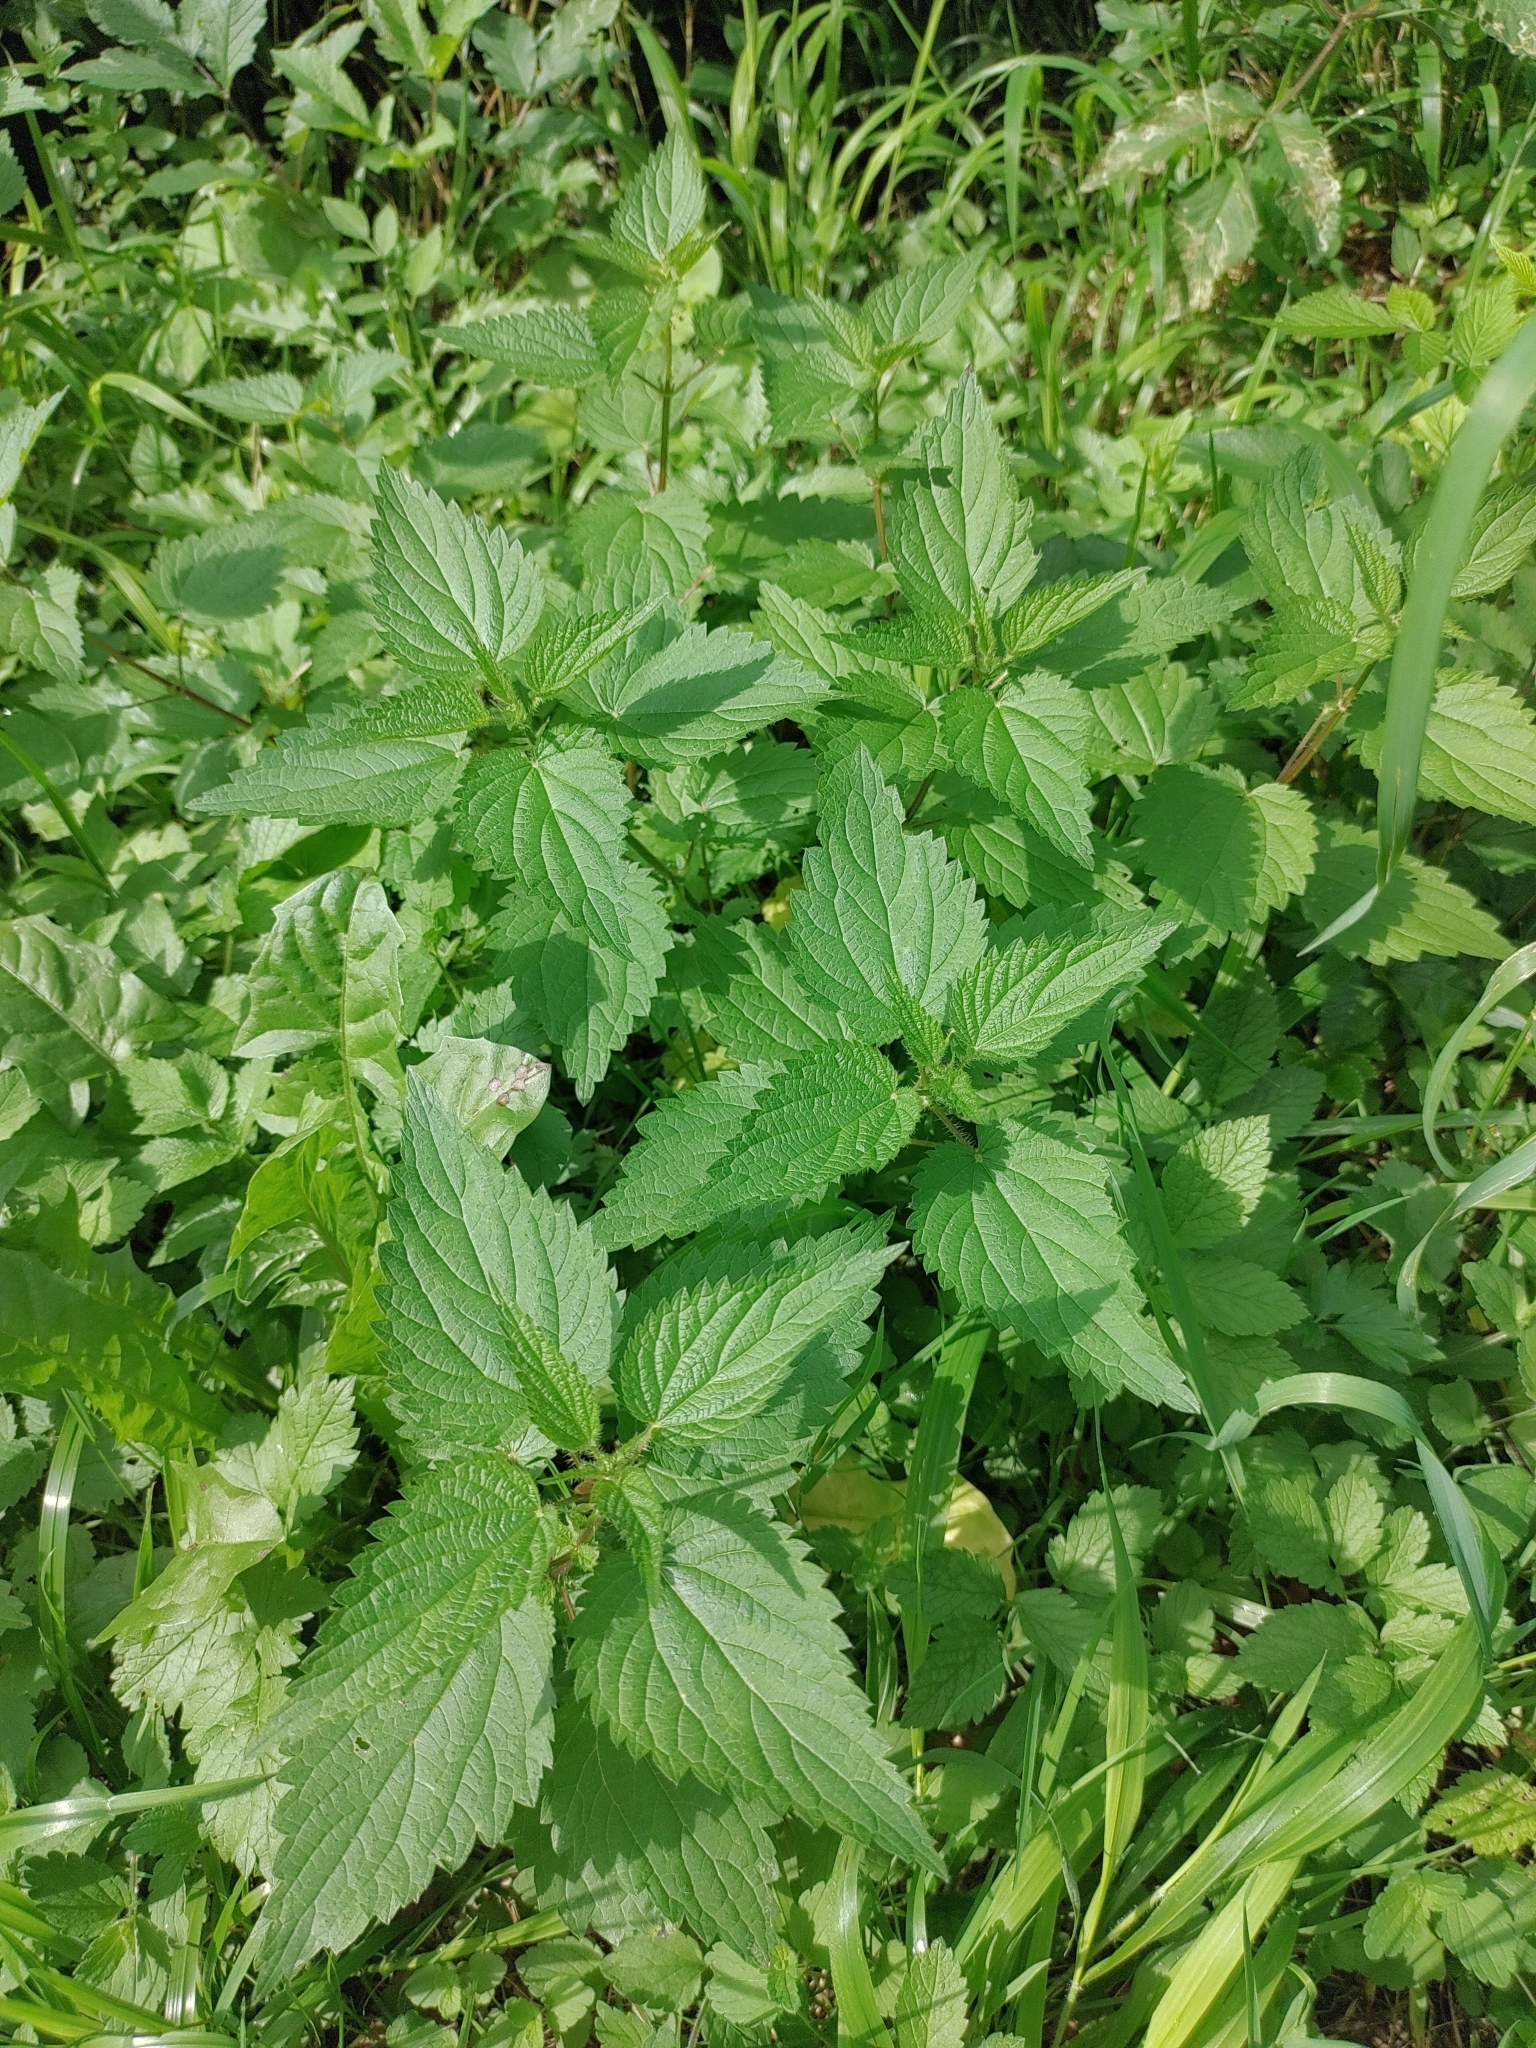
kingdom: Plantae
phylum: Tracheophyta
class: Magnoliopsida
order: Rosales
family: Urticaceae
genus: Urtica
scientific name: Urtica dioica
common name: Common nettle
